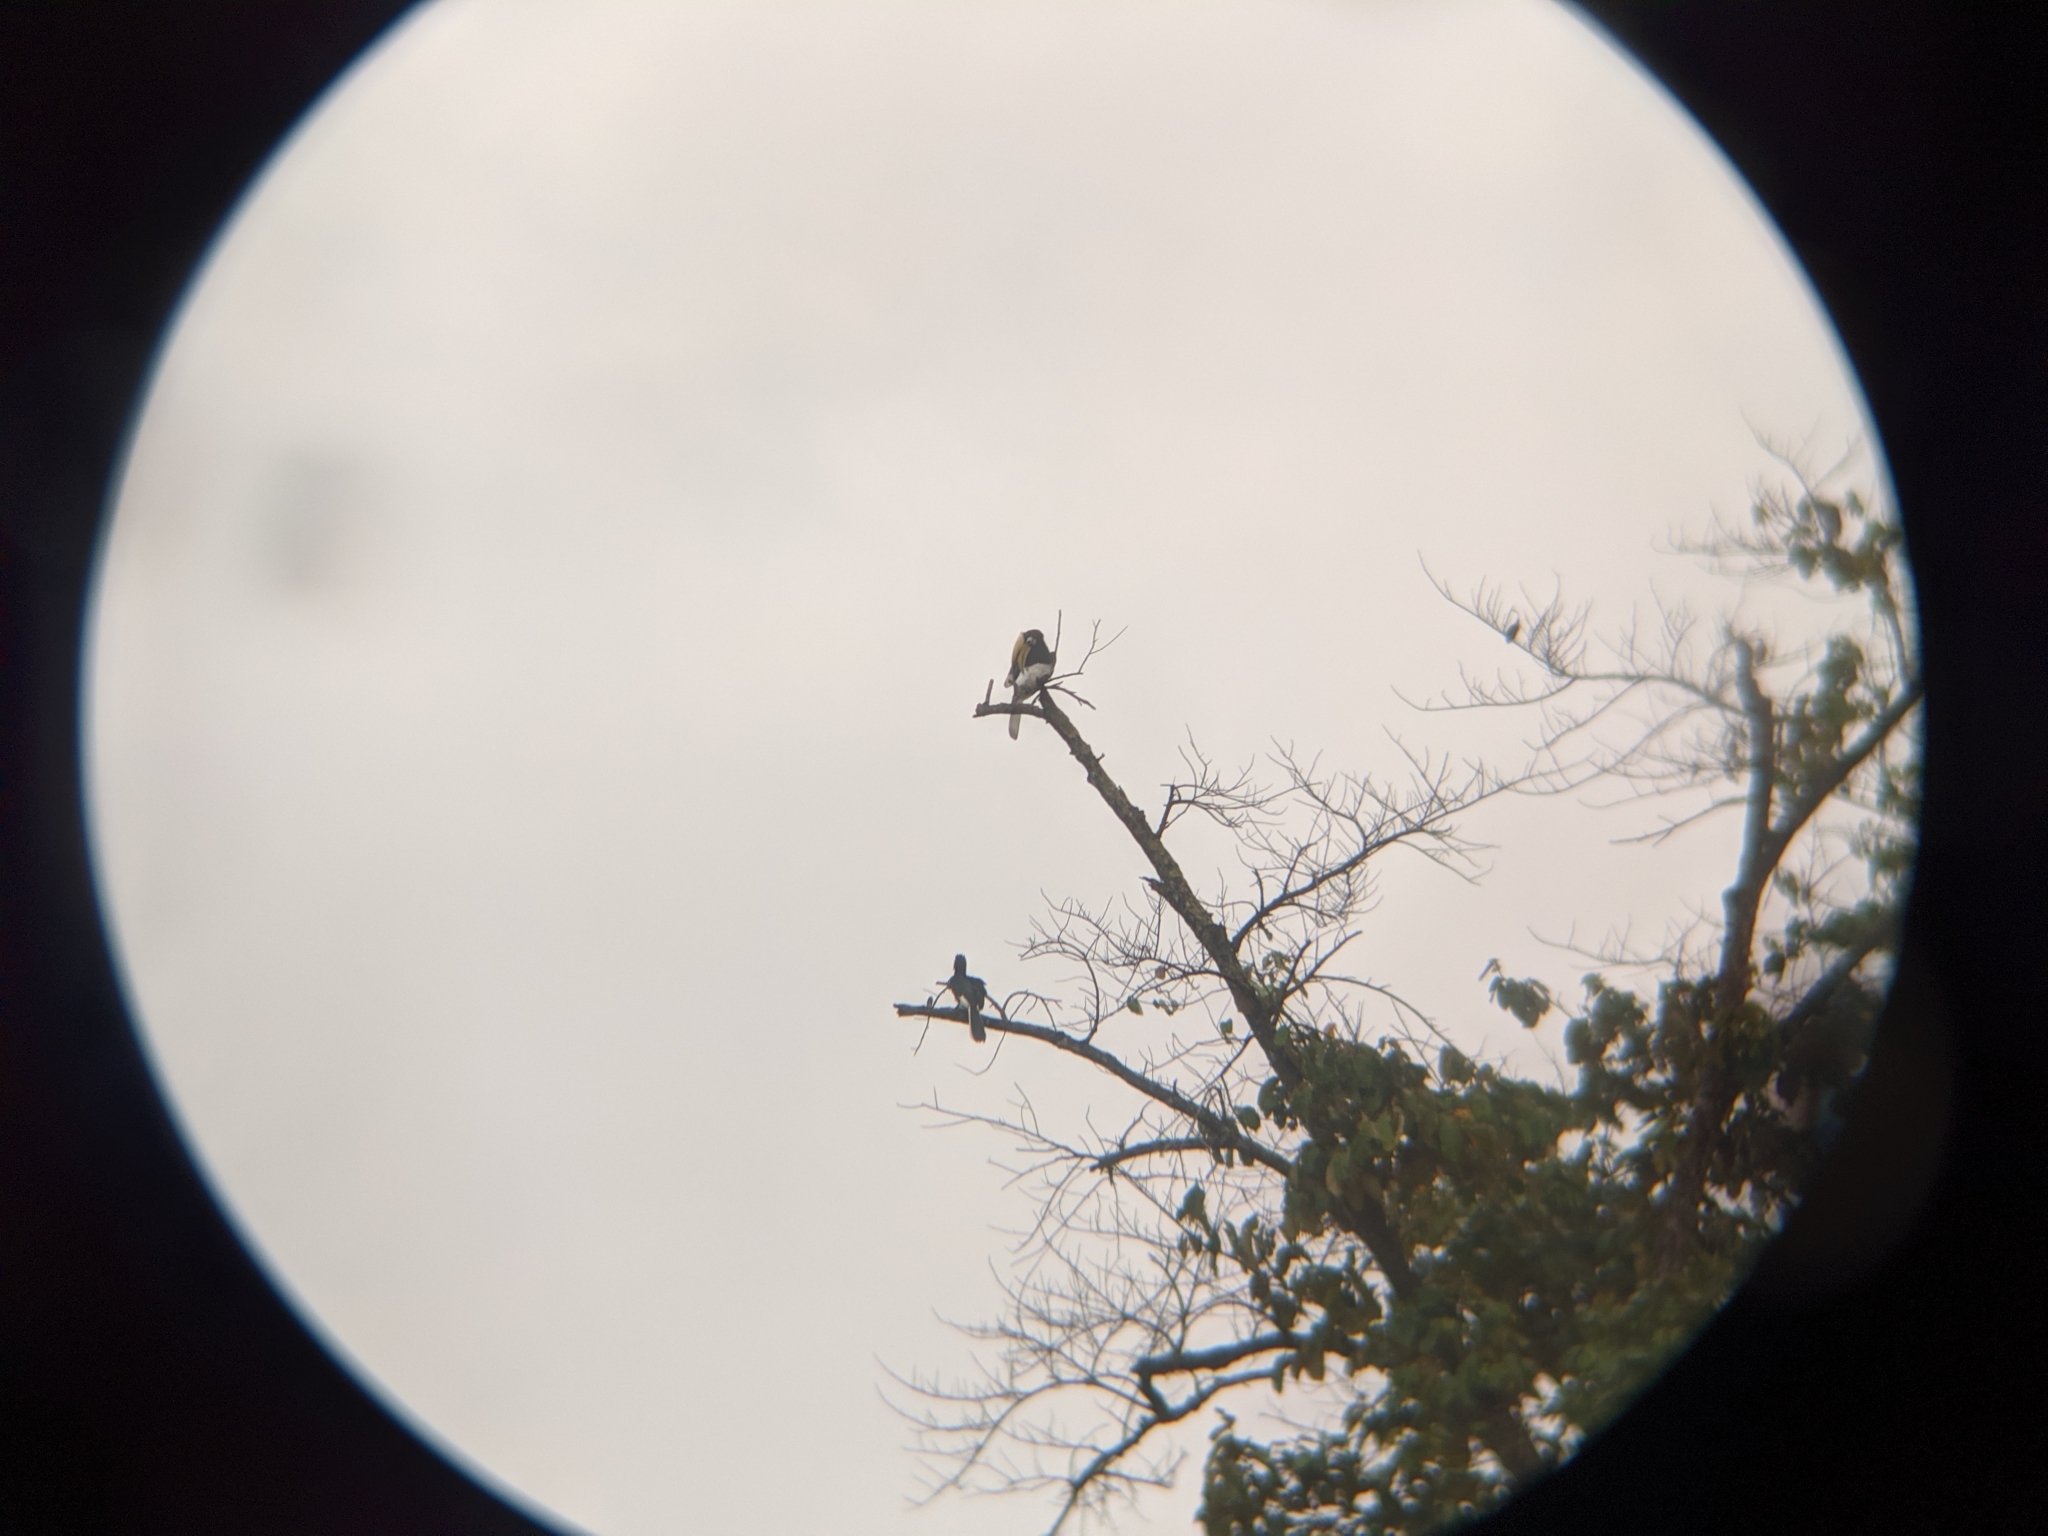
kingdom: Animalia
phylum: Chordata
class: Aves
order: Bucerotiformes
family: Bucerotidae
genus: Anthracoceros
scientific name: Anthracoceros albirostris
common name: Oriental pied-hornbill
